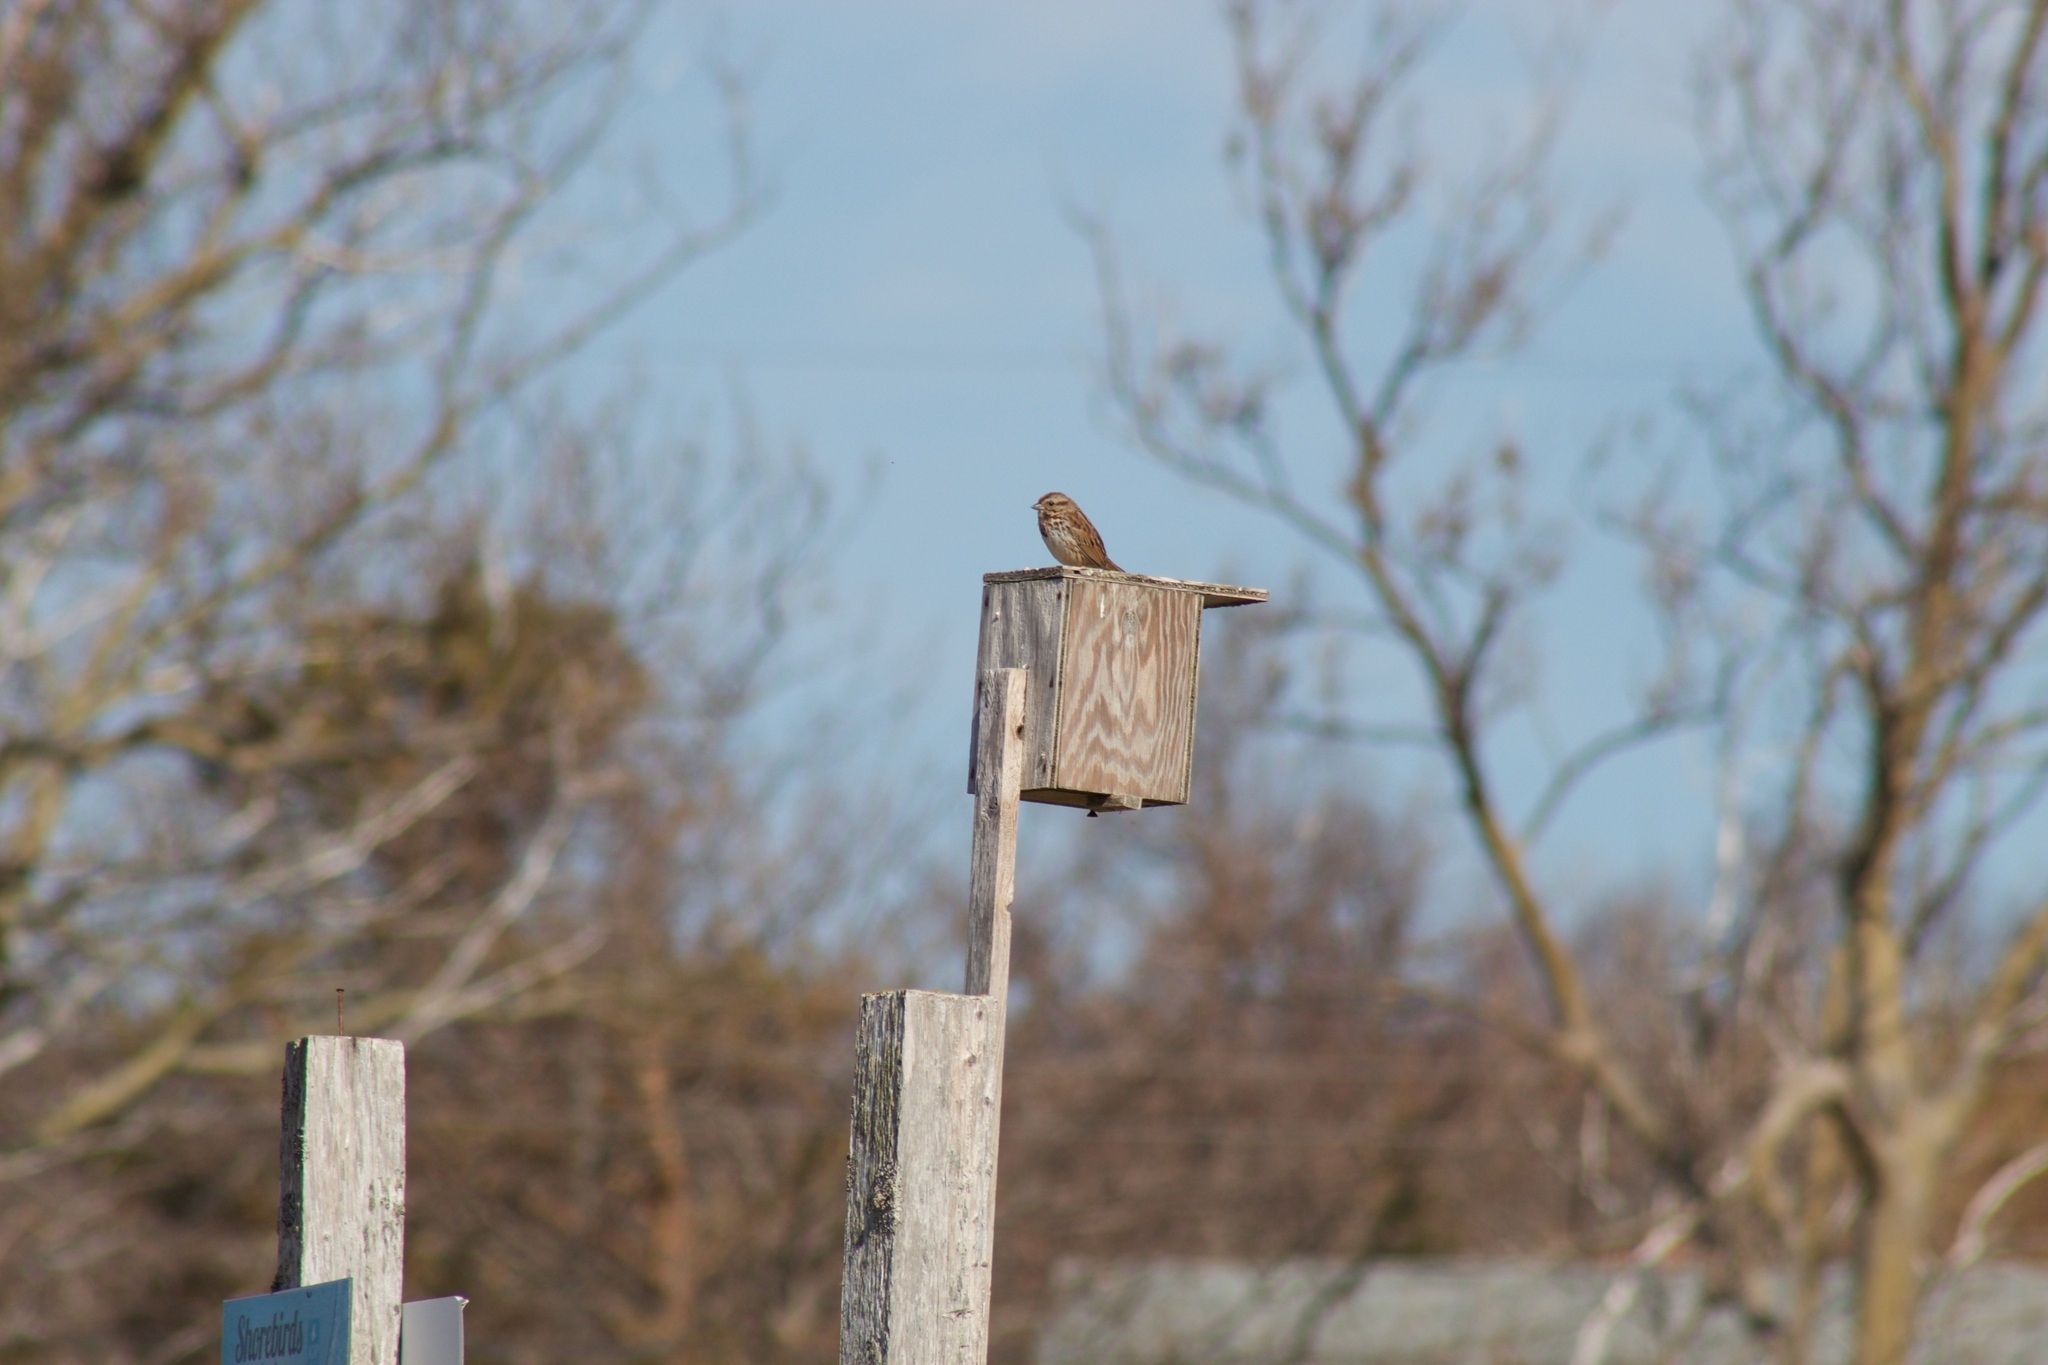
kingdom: Animalia
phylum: Chordata
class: Aves
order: Passeriformes
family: Passerellidae
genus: Melospiza
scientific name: Melospiza melodia
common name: Song sparrow
